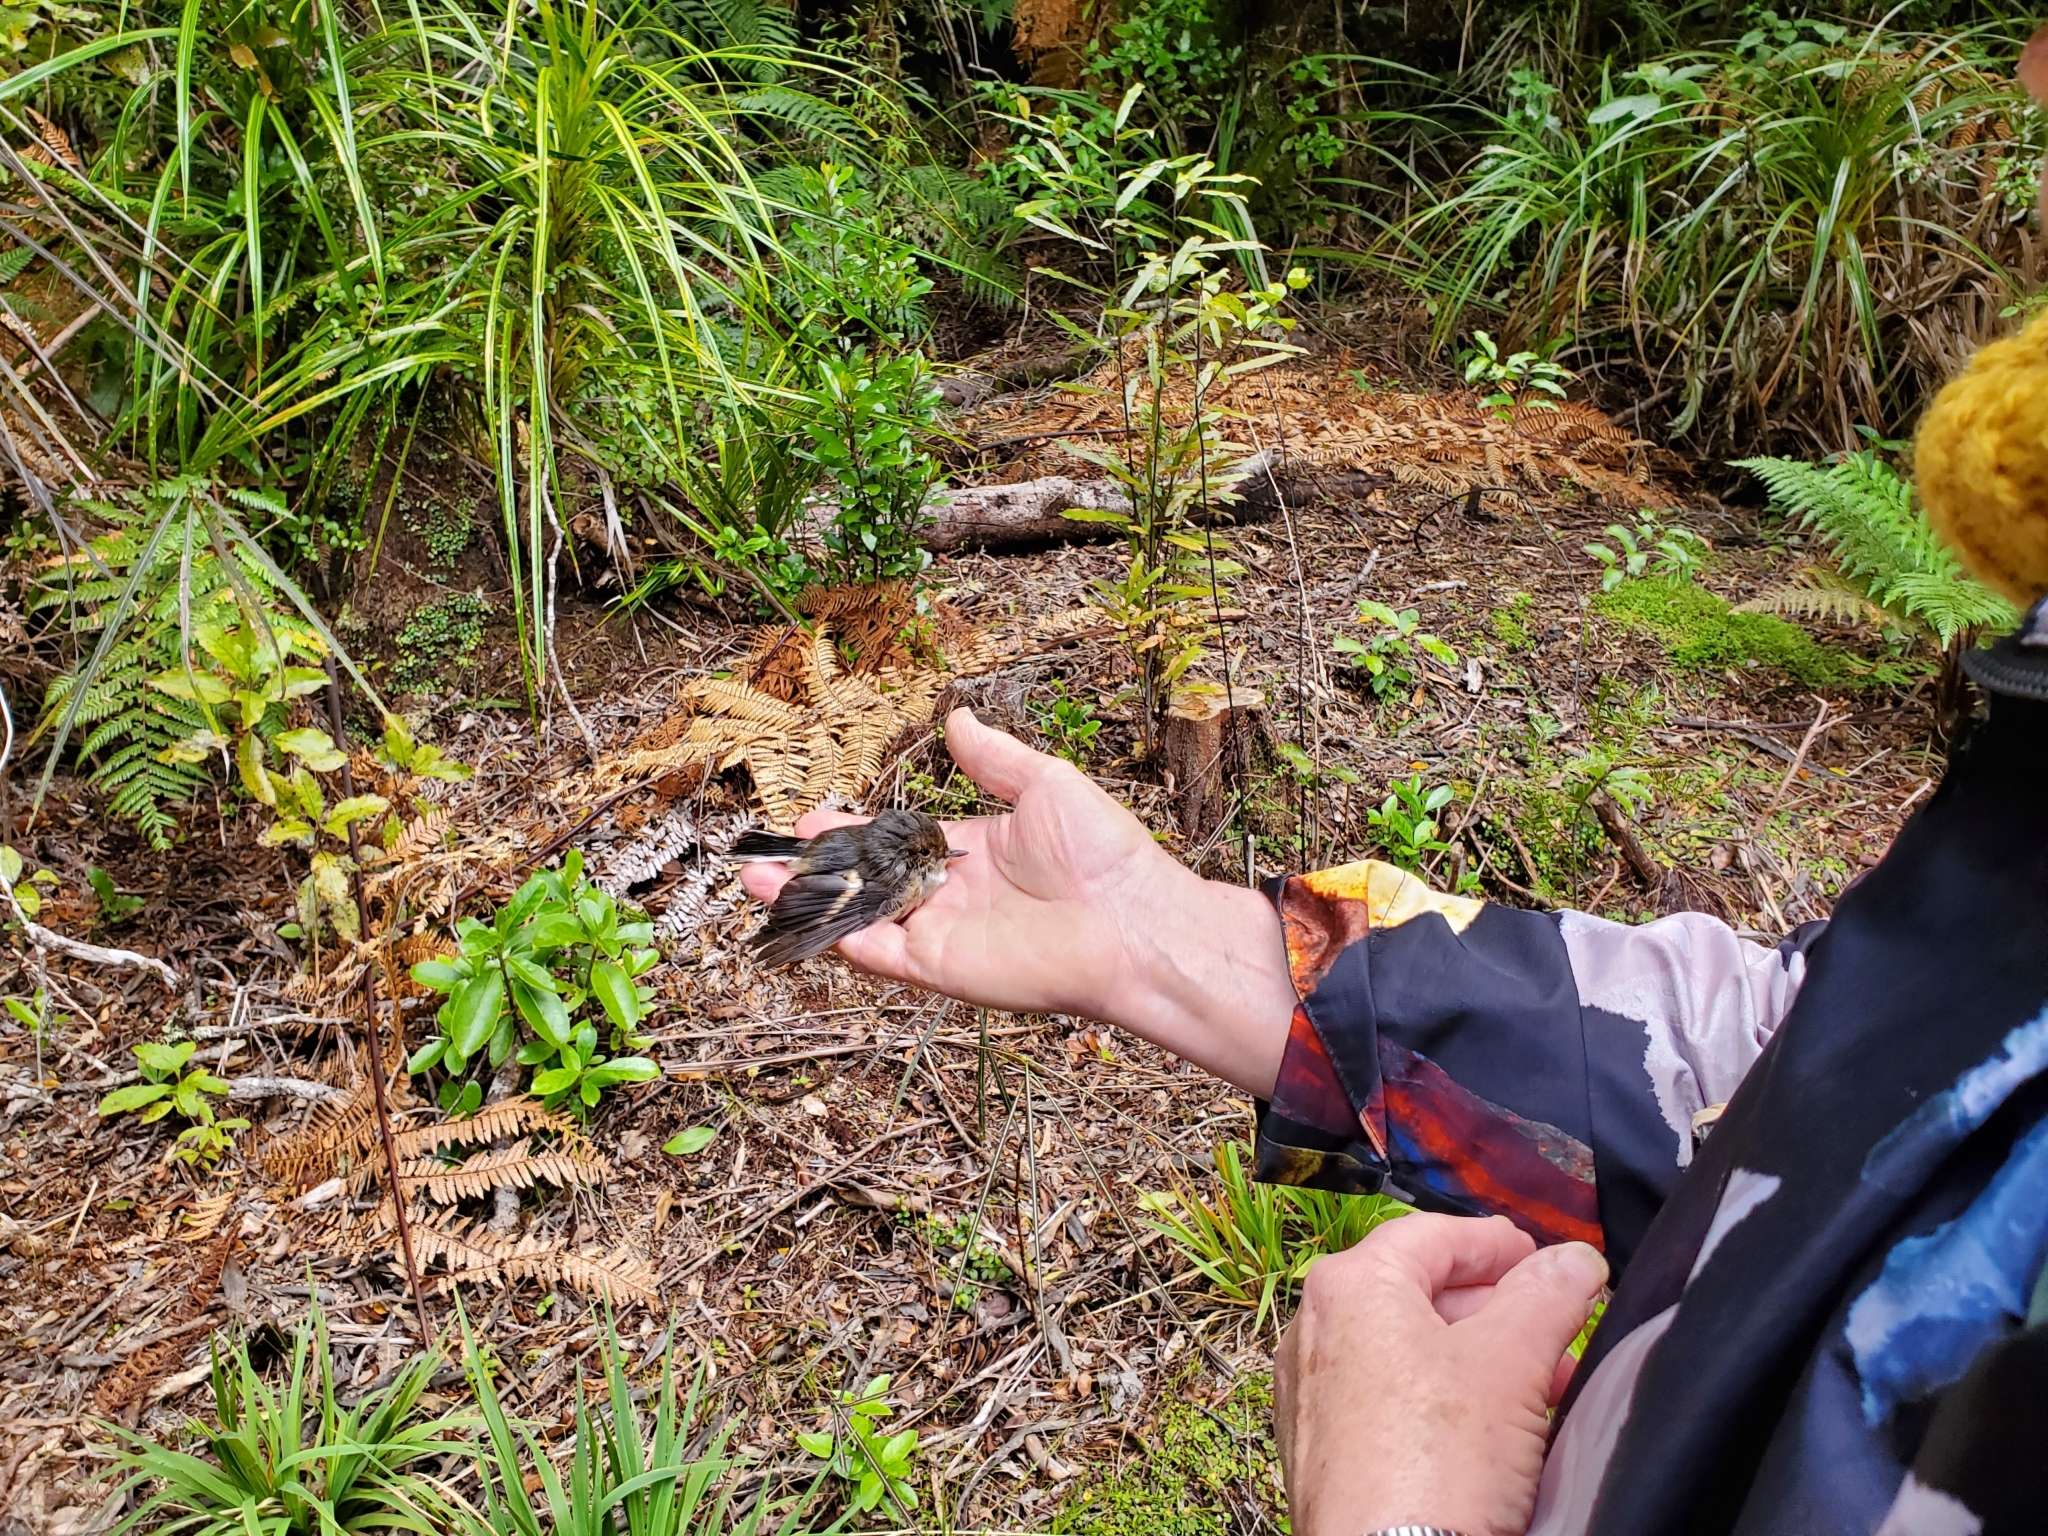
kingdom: Animalia
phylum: Chordata
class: Aves
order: Passeriformes
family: Petroicidae
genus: Petroica
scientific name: Petroica macrocephala
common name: Tomtit
